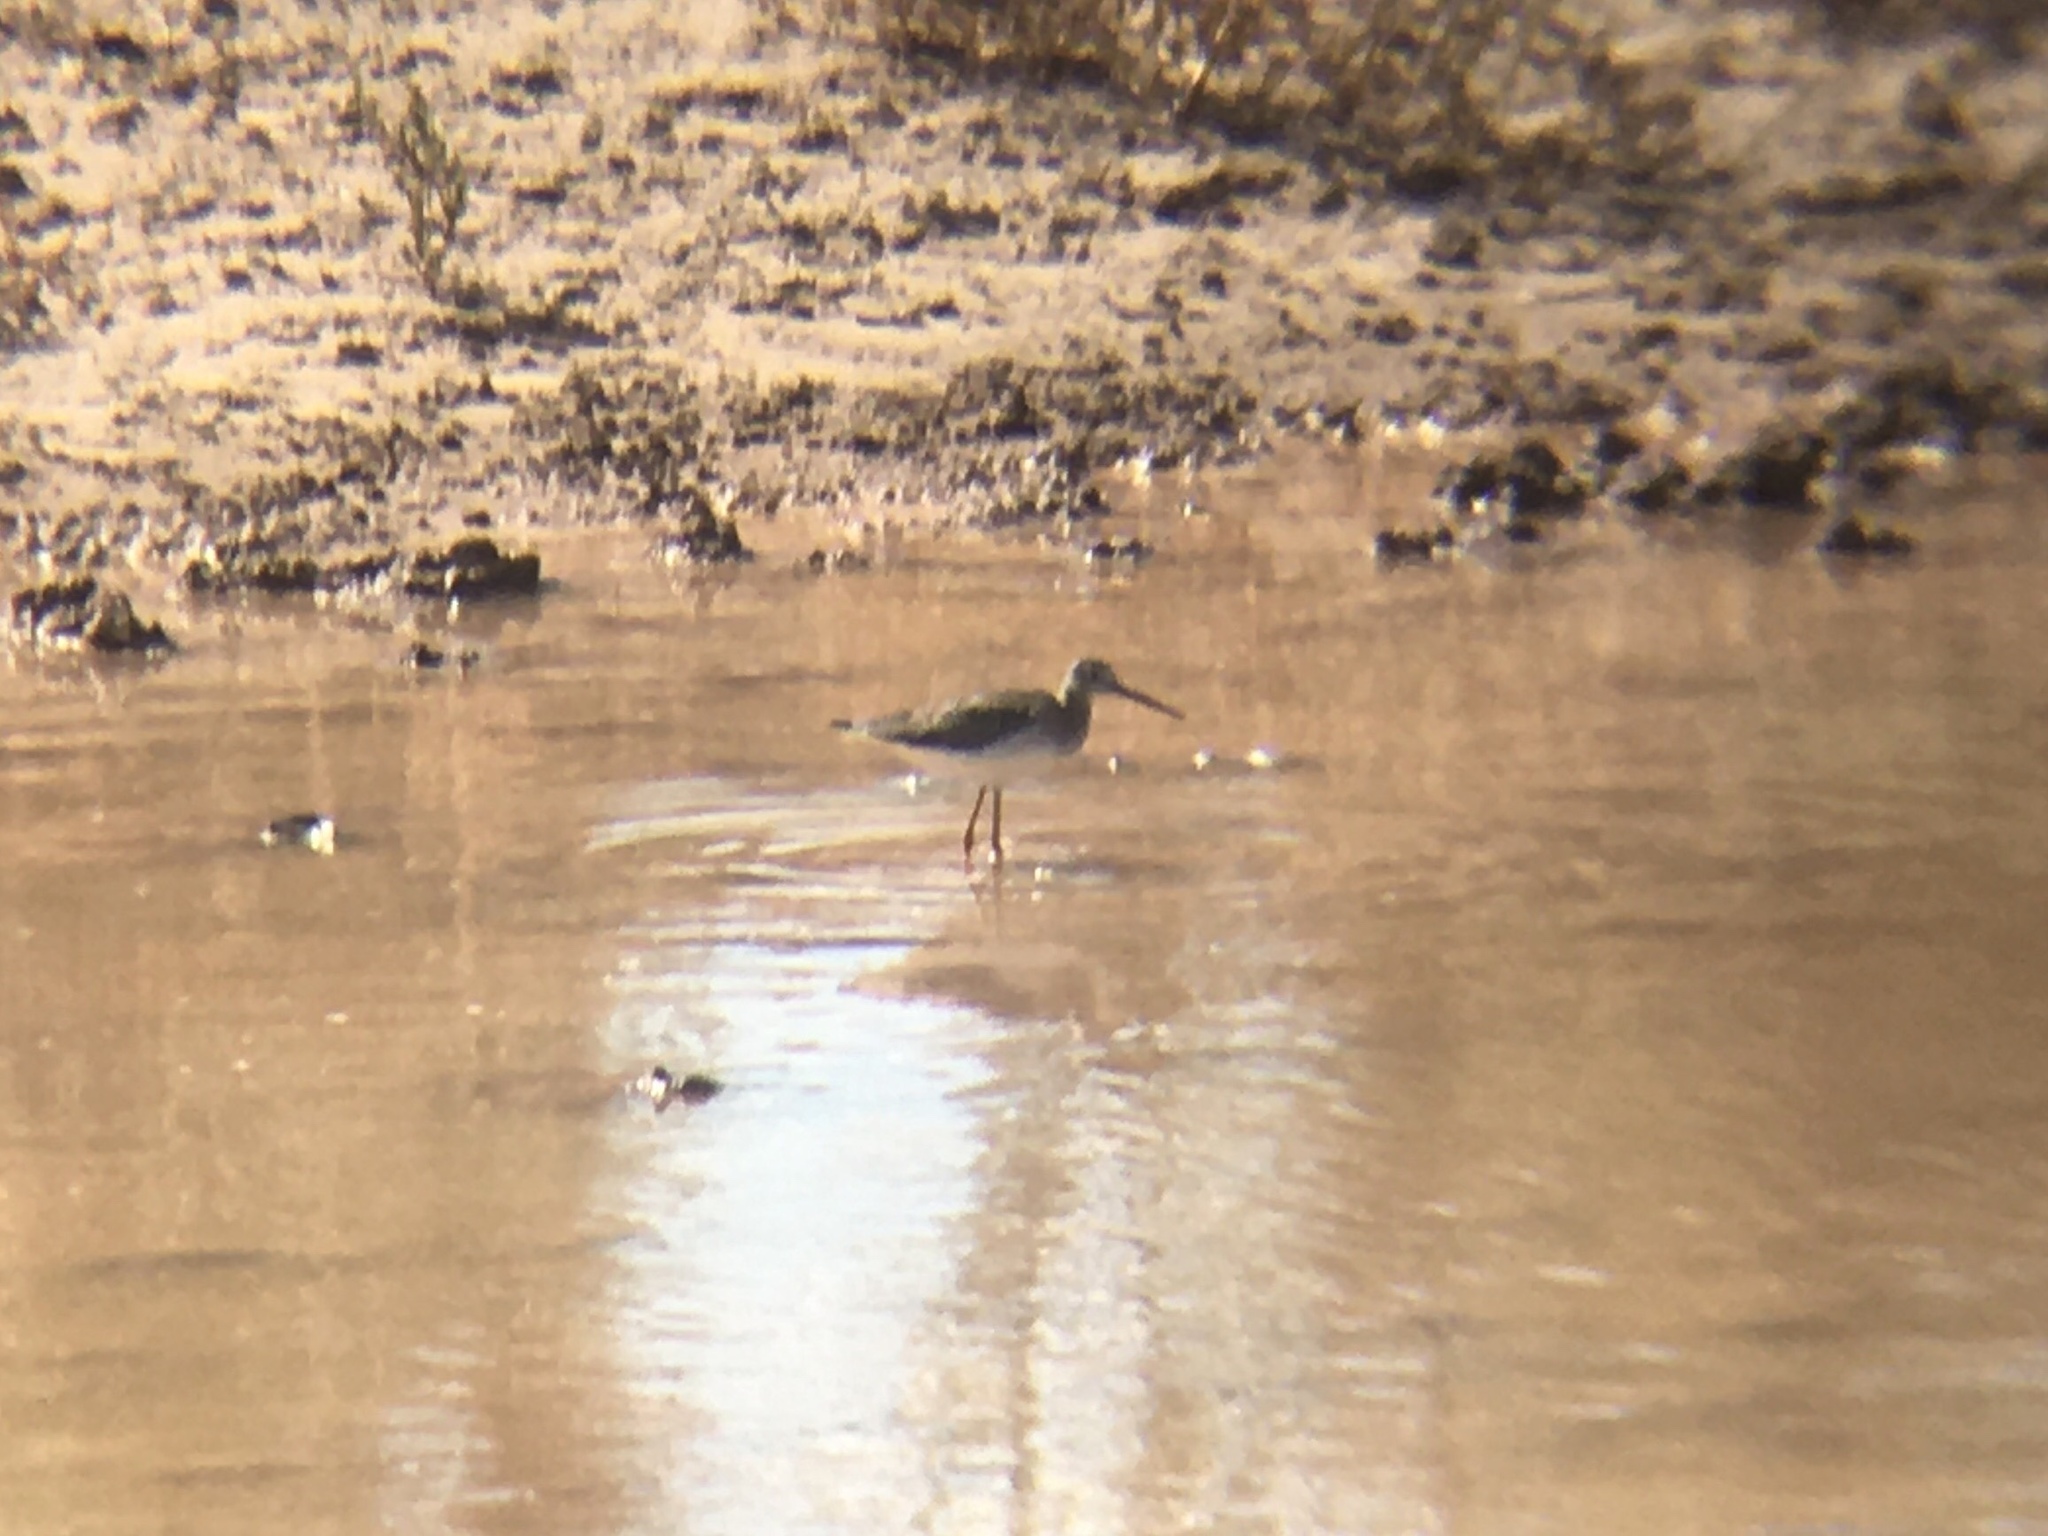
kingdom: Animalia
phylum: Chordata
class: Aves
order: Charadriiformes
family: Scolopacidae
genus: Tringa
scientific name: Tringa melanoleuca
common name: Greater yellowlegs
